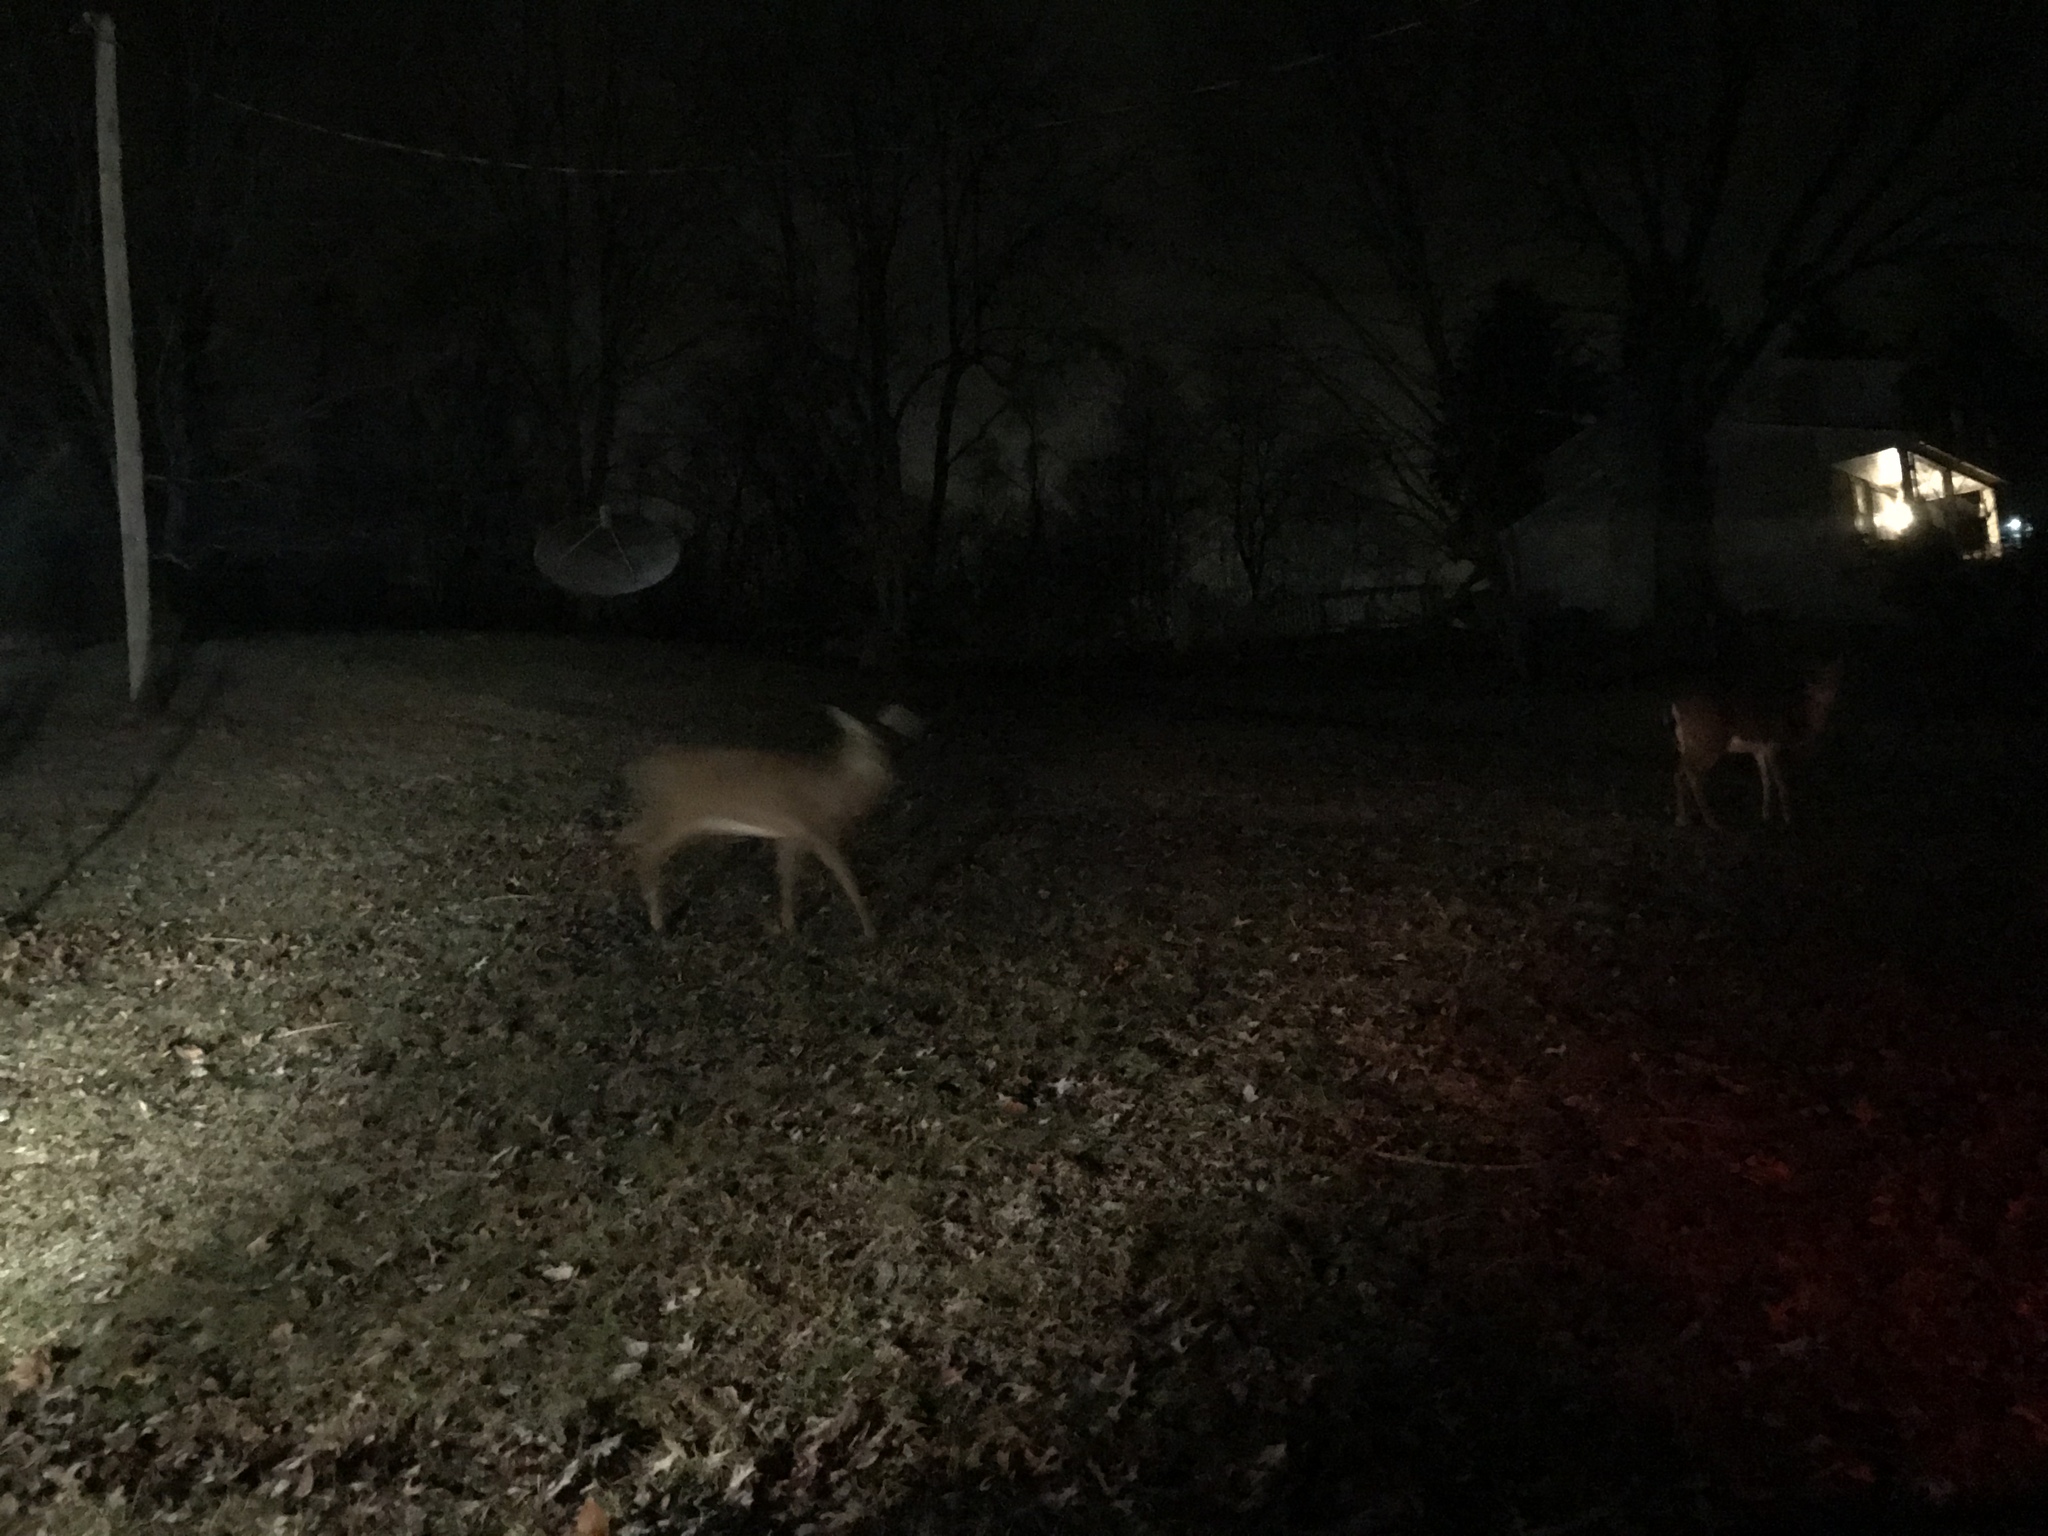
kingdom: Animalia
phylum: Chordata
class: Mammalia
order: Artiodactyla
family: Cervidae
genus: Odocoileus
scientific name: Odocoileus virginianus
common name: White-tailed deer
